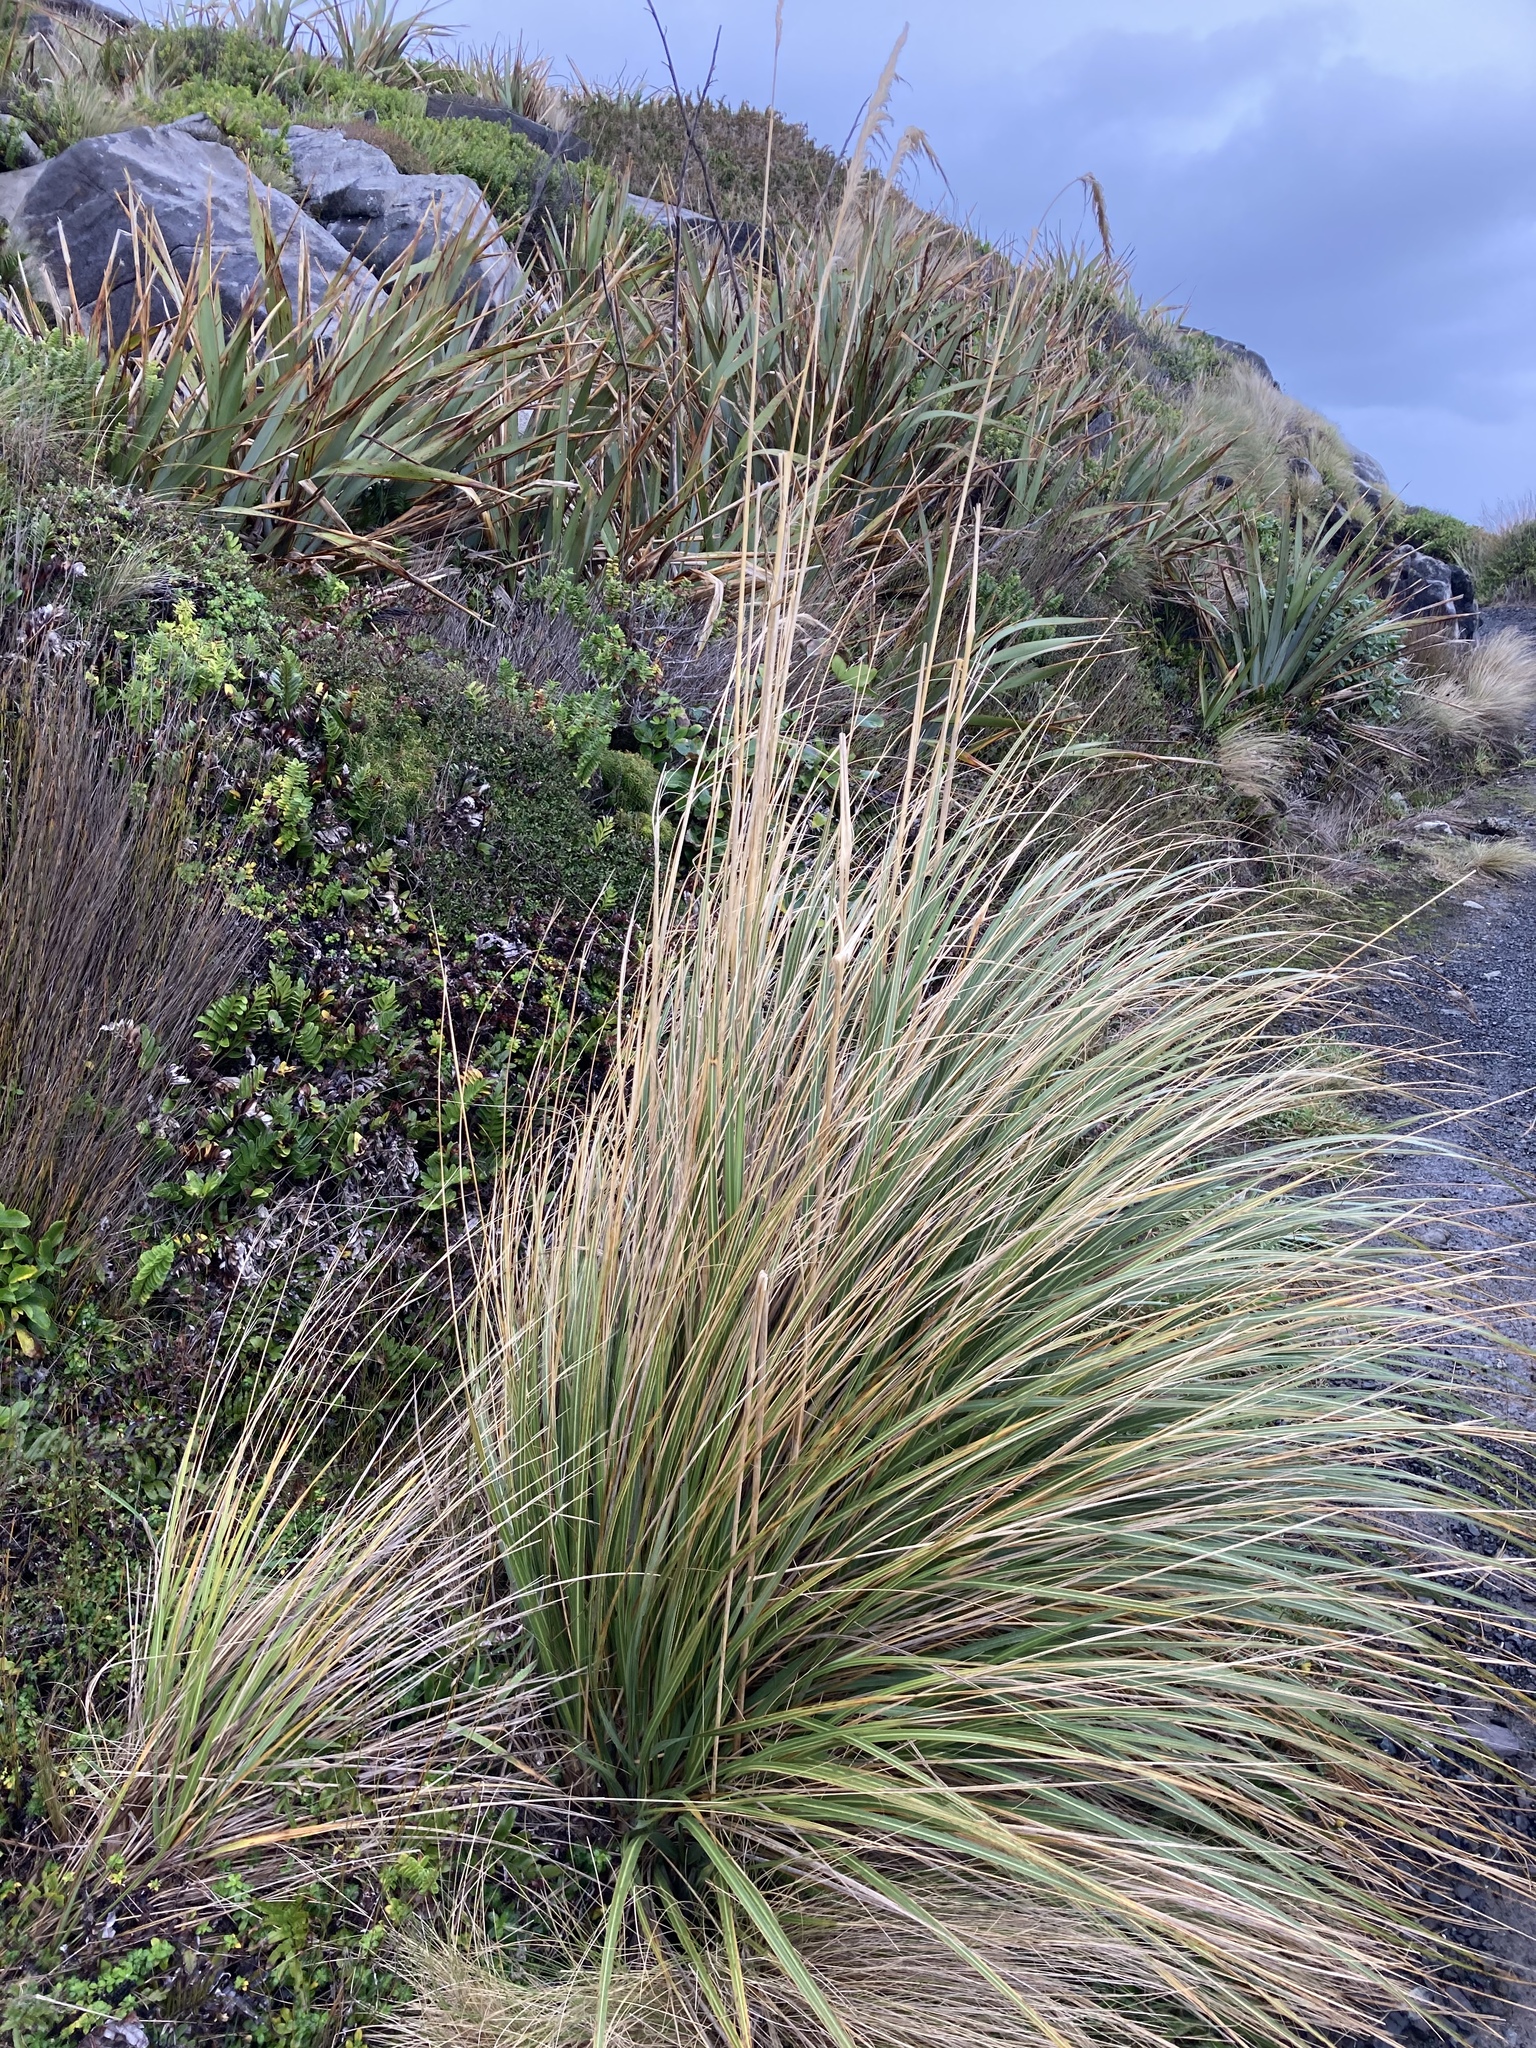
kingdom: Plantae
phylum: Tracheophyta
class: Liliopsida
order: Poales
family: Poaceae
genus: Austroderia
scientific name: Austroderia richardii
